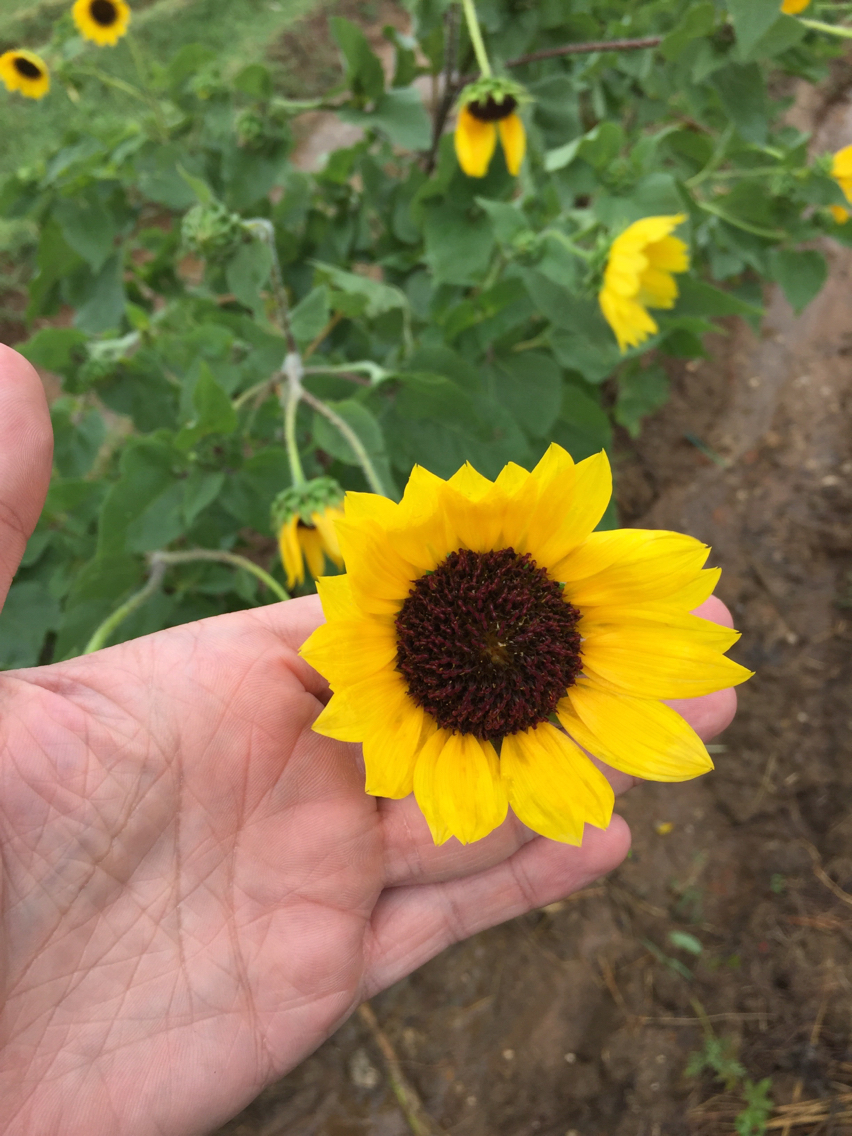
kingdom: Plantae
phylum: Tracheophyta
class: Magnoliopsida
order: Asterales
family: Asteraceae
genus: Helianthus
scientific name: Helianthus annuus
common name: Sunflower
